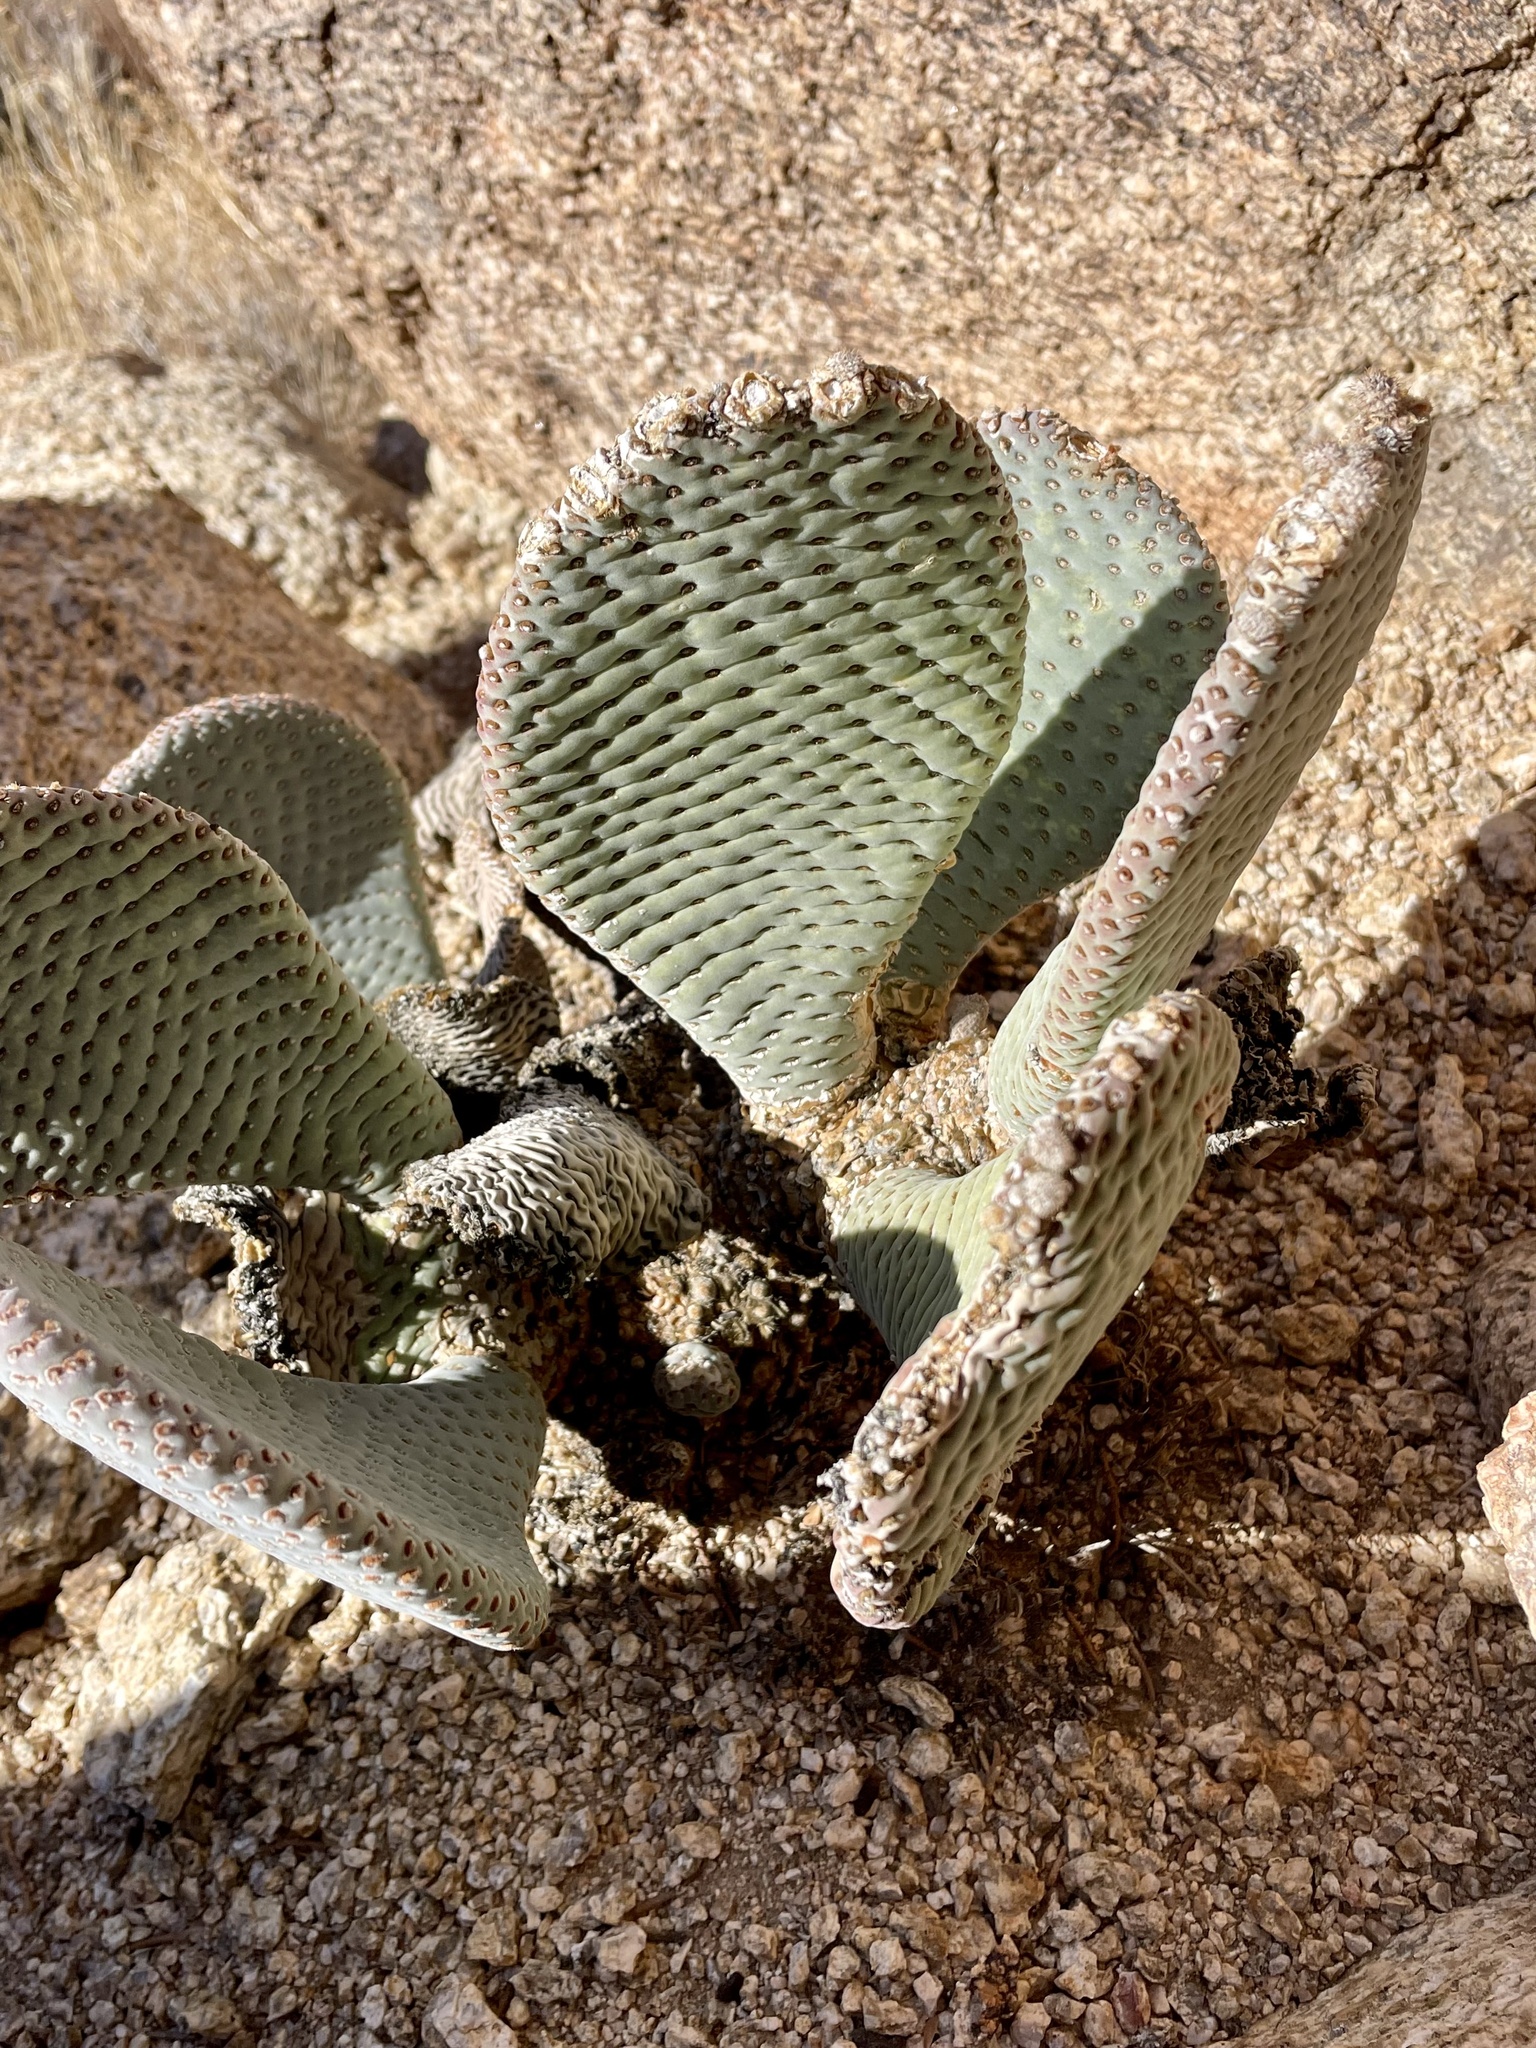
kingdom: Plantae
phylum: Tracheophyta
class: Magnoliopsida
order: Caryophyllales
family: Cactaceae
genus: Opuntia
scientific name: Opuntia basilaris
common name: Beavertail prickly-pear
